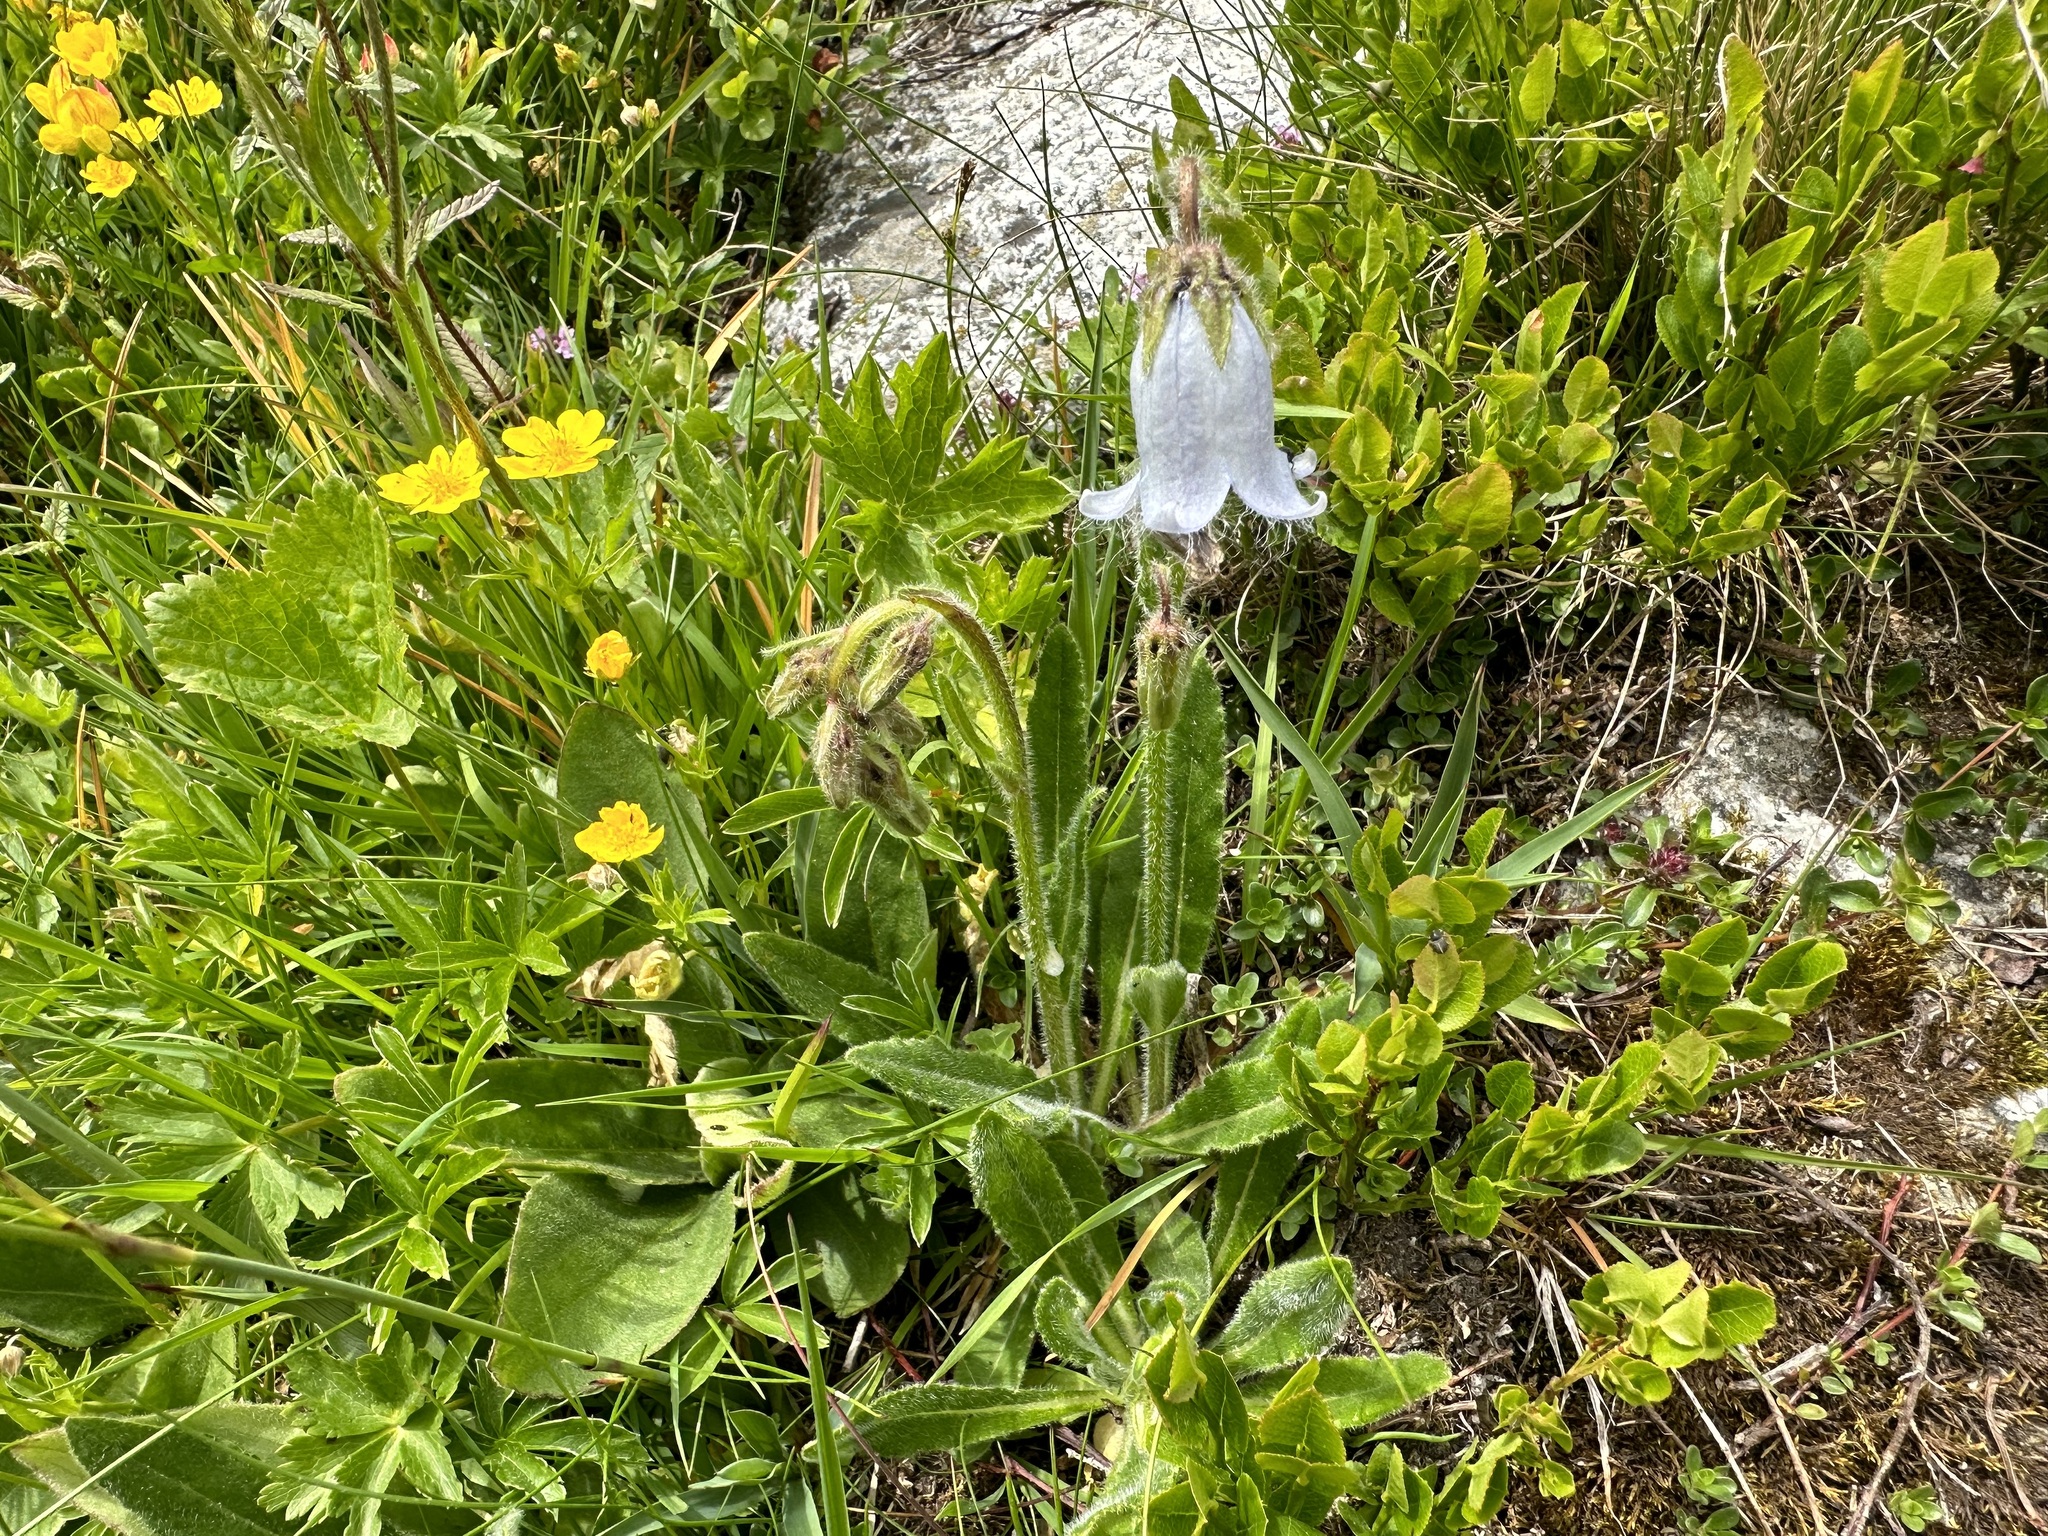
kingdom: Plantae
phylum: Tracheophyta
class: Magnoliopsida
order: Asterales
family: Campanulaceae
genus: Campanula
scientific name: Campanula barbata
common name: Bearded bellflower
